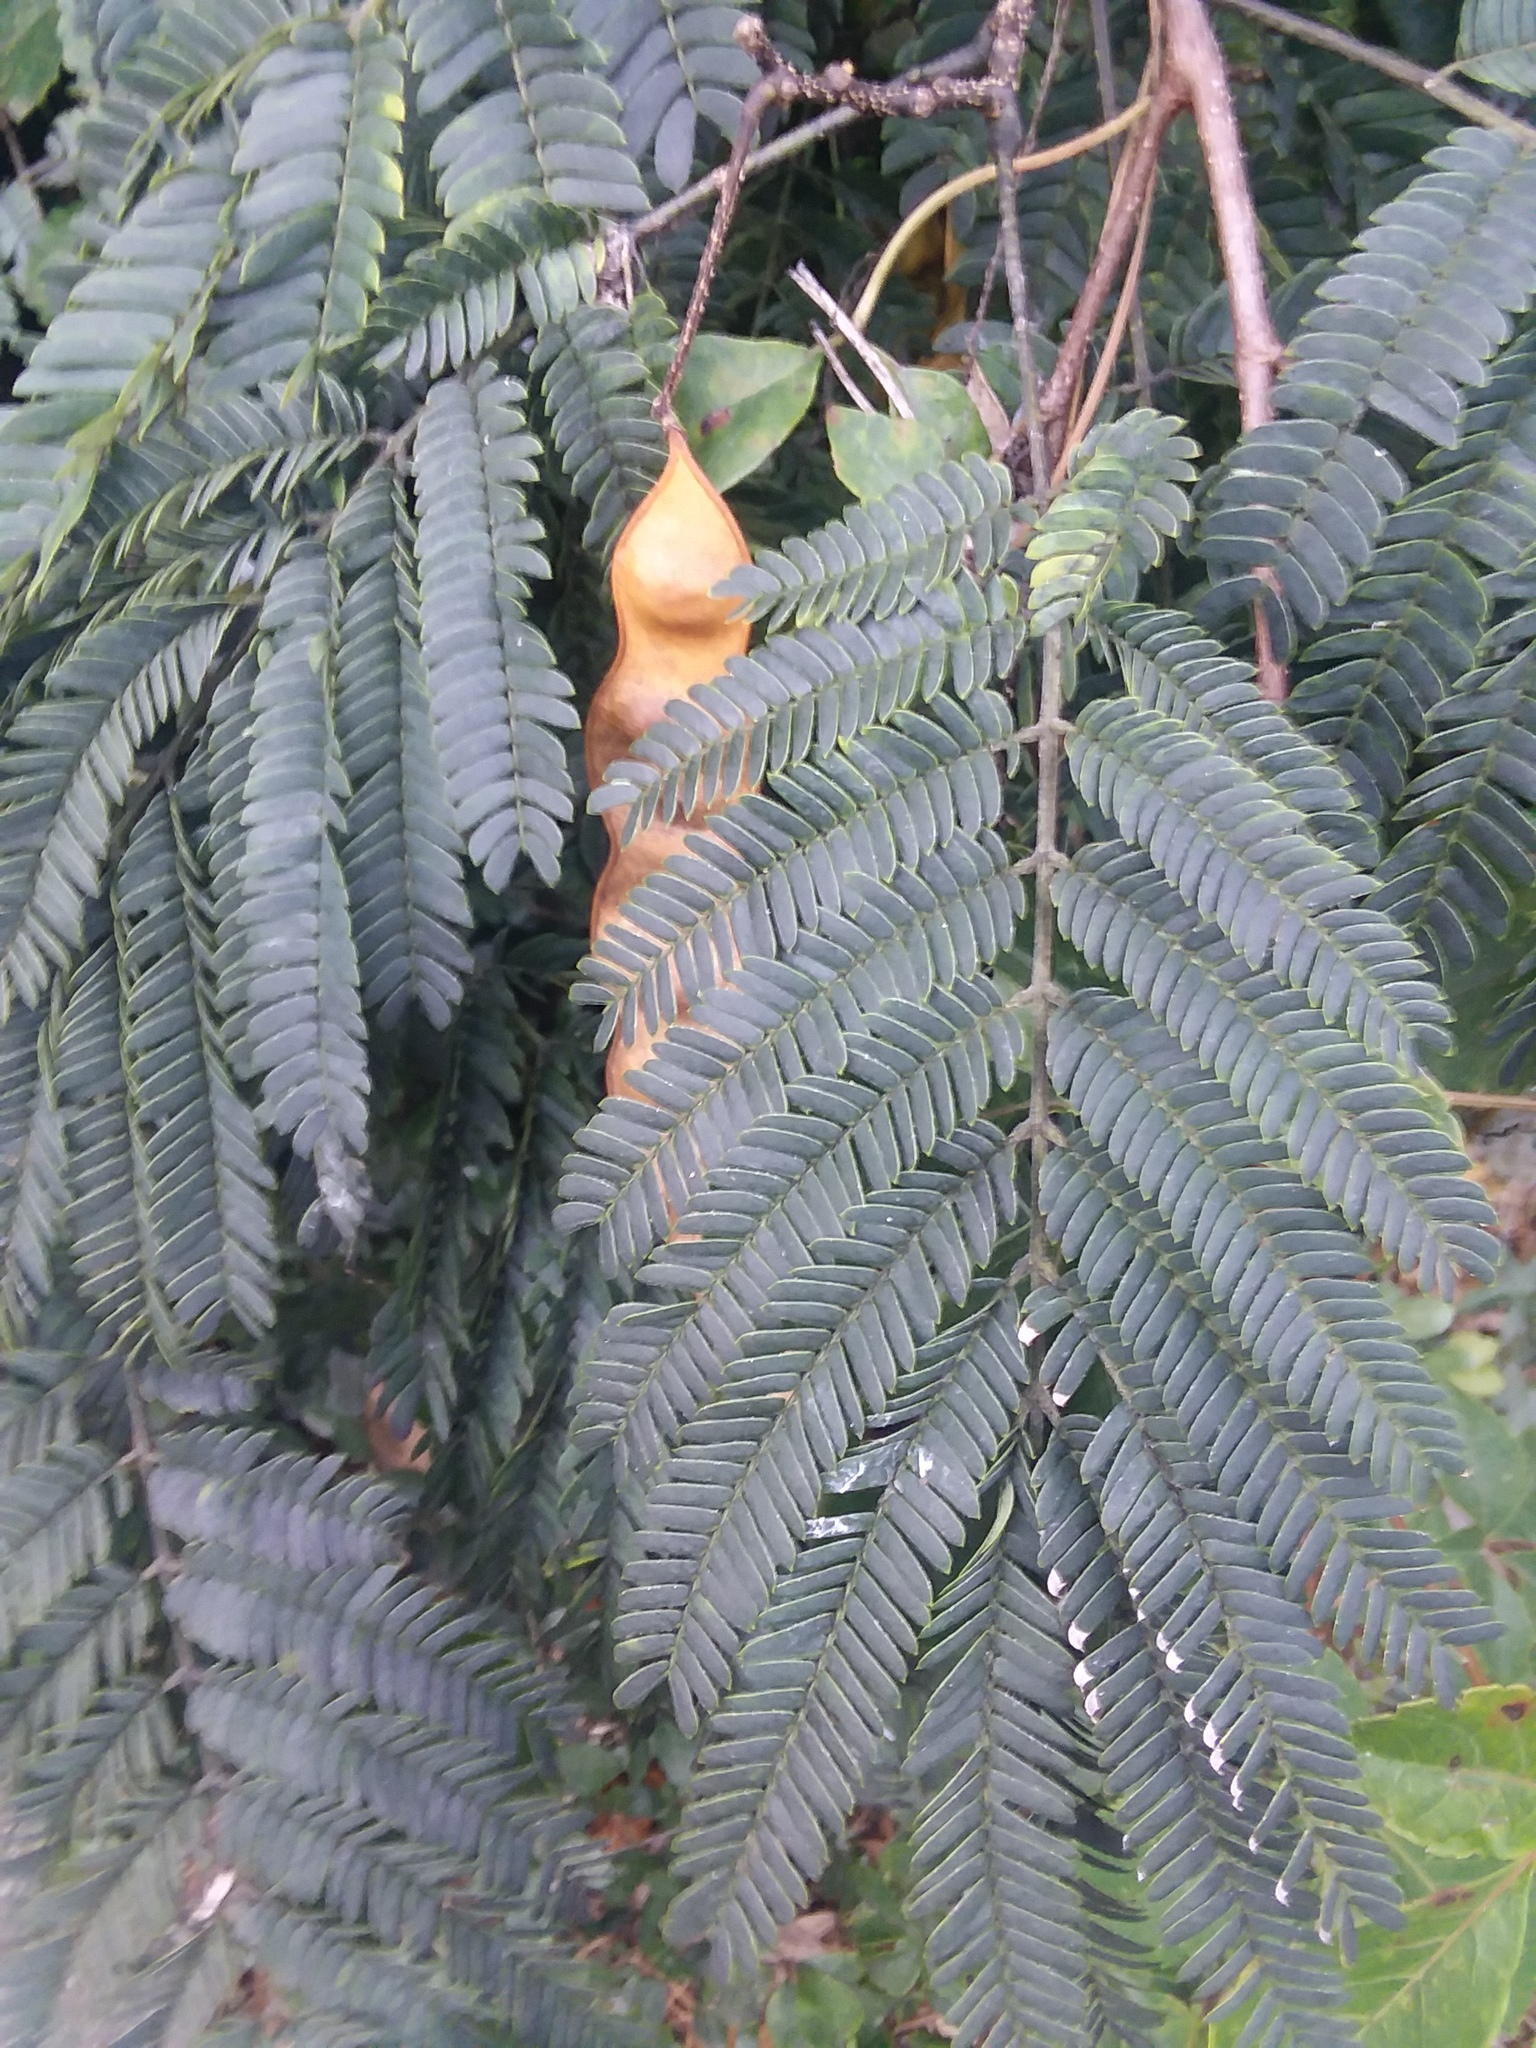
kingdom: Plantae
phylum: Tracheophyta
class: Magnoliopsida
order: Fabales
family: Fabaceae
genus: Albizia
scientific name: Albizia julibrissin
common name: Silktree
